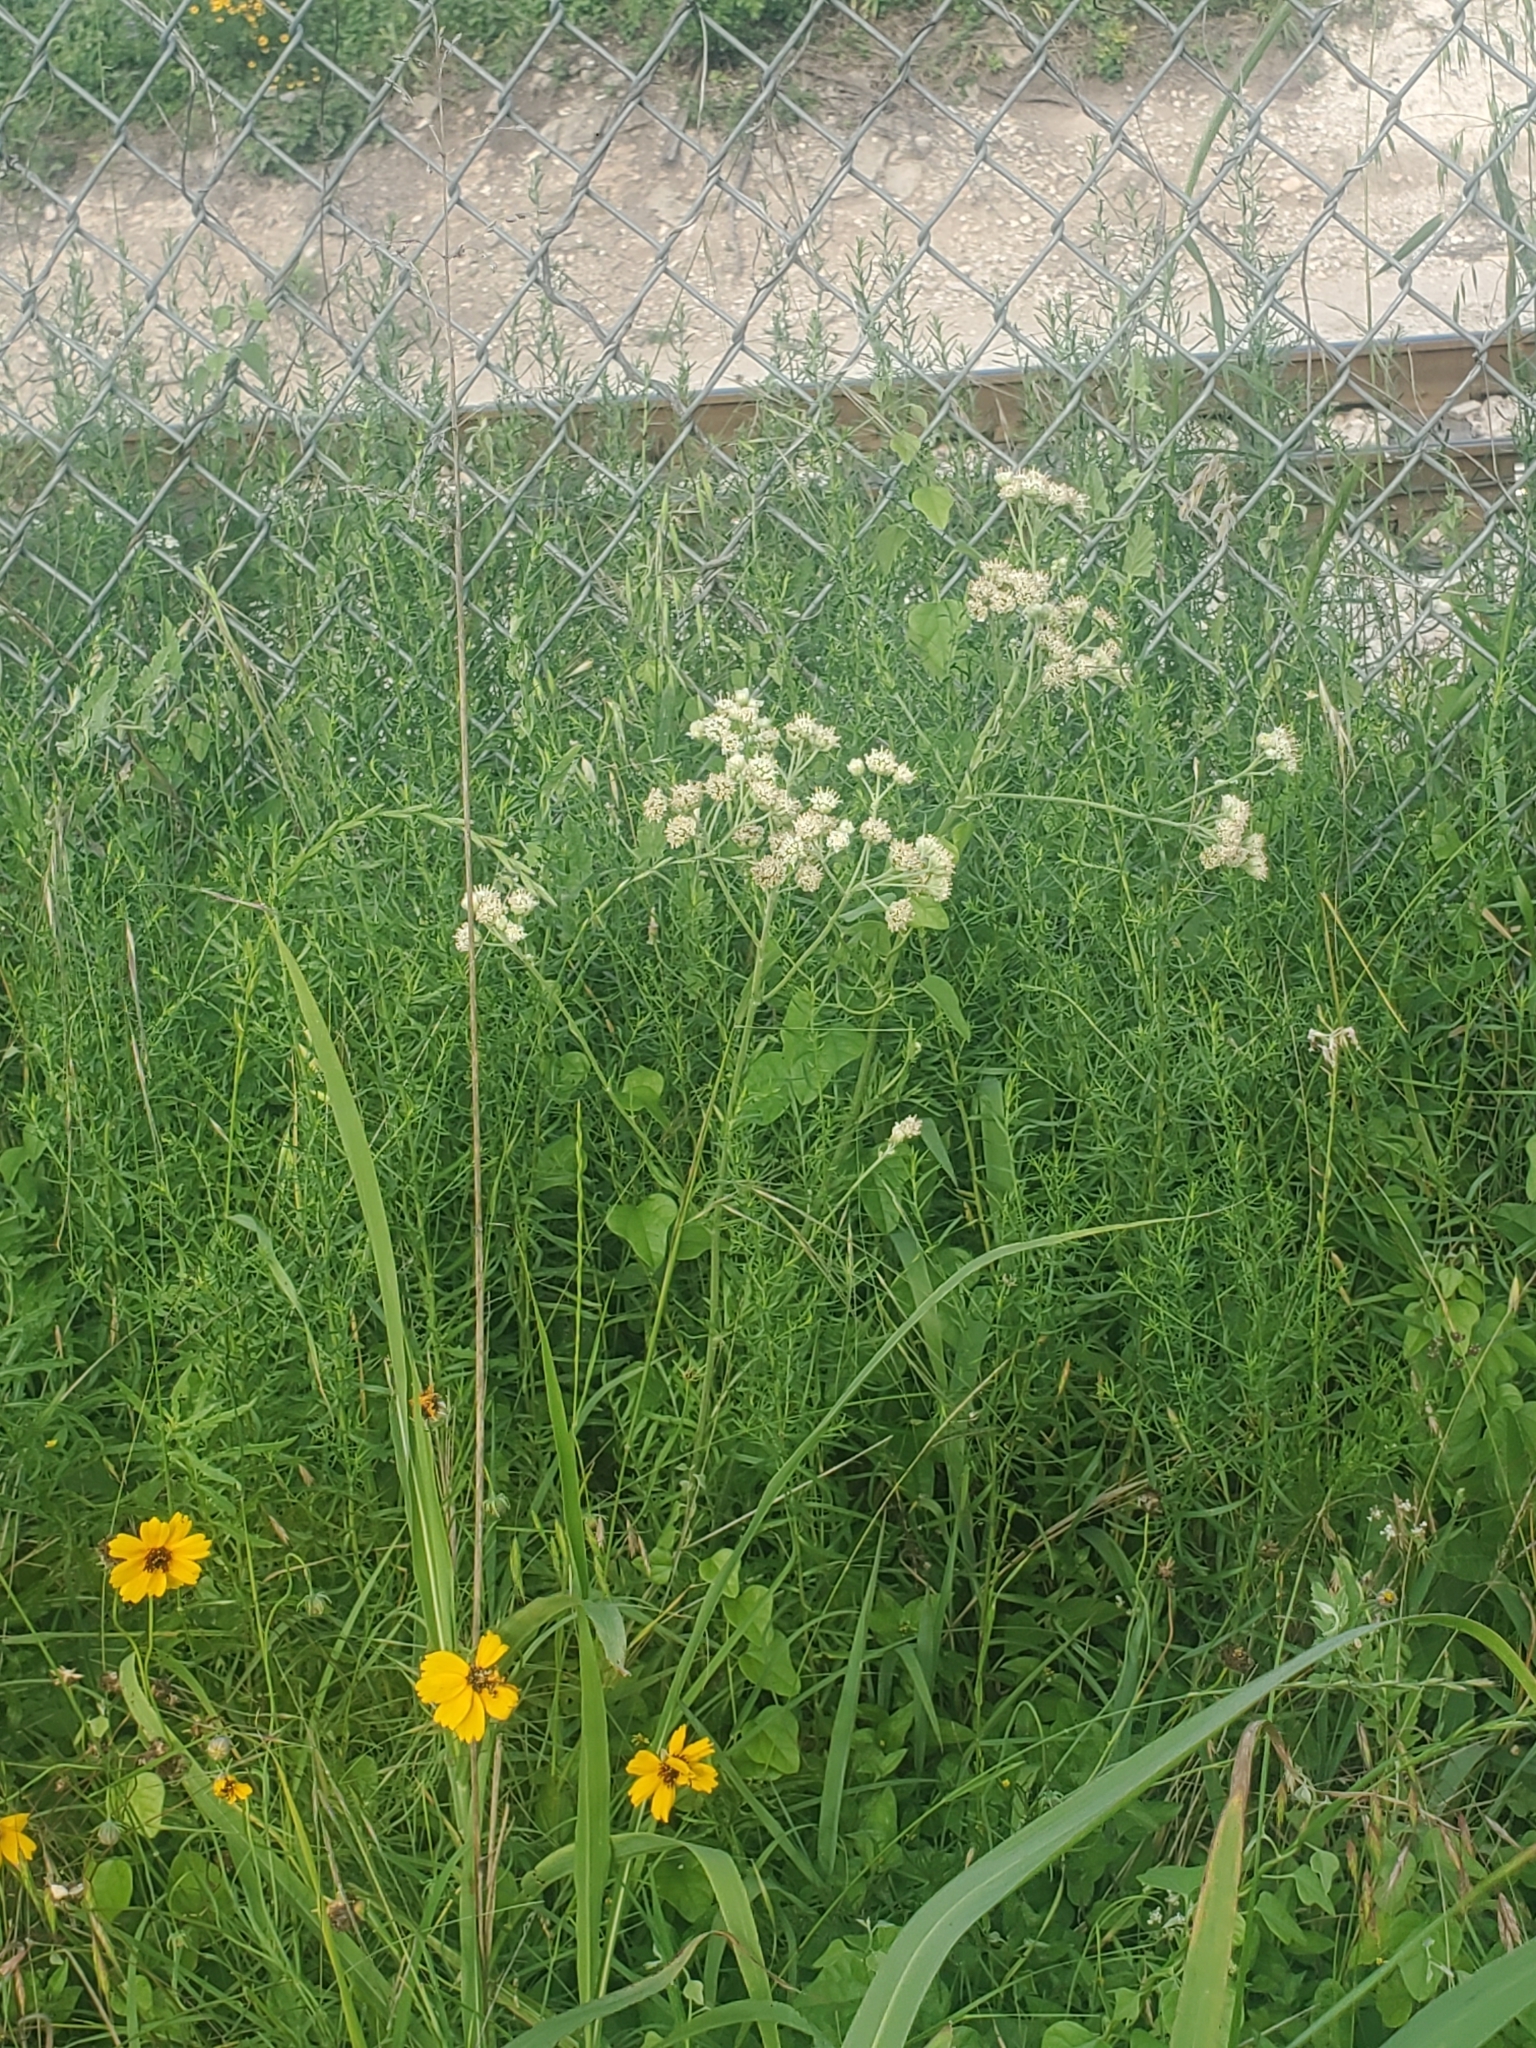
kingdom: Plantae
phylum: Tracheophyta
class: Magnoliopsida
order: Asterales
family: Asteraceae
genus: Hymenopappus
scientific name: Hymenopappus scabiosaeus
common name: Carolina woollywhite
